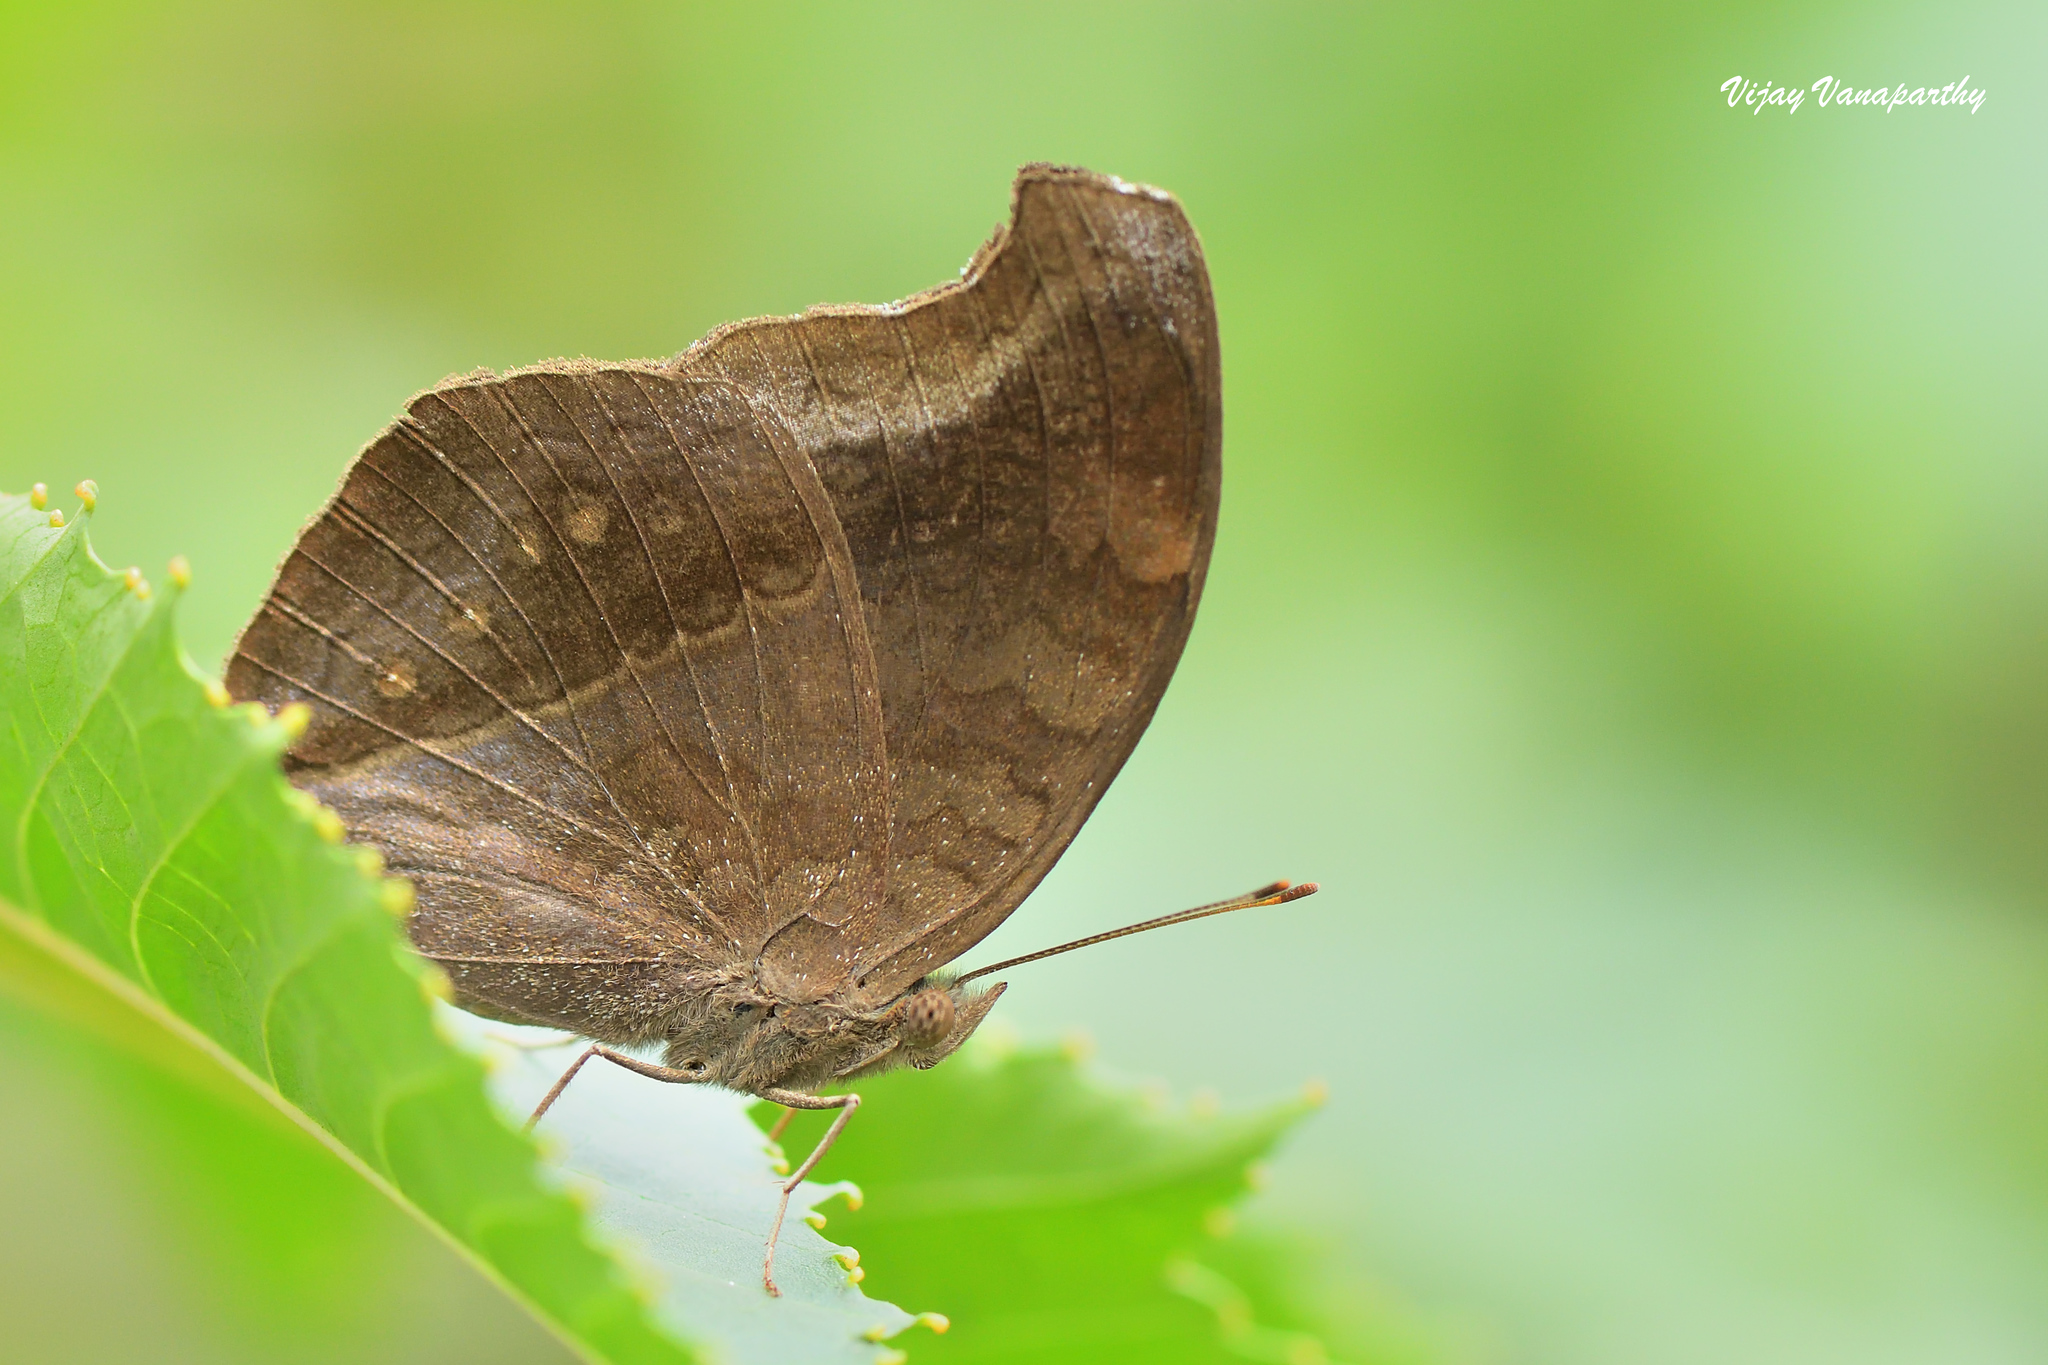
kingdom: Animalia
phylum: Arthropoda
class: Insecta
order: Lepidoptera
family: Nymphalidae
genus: Junonia
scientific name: Junonia iphita
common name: Chocolate pansy
